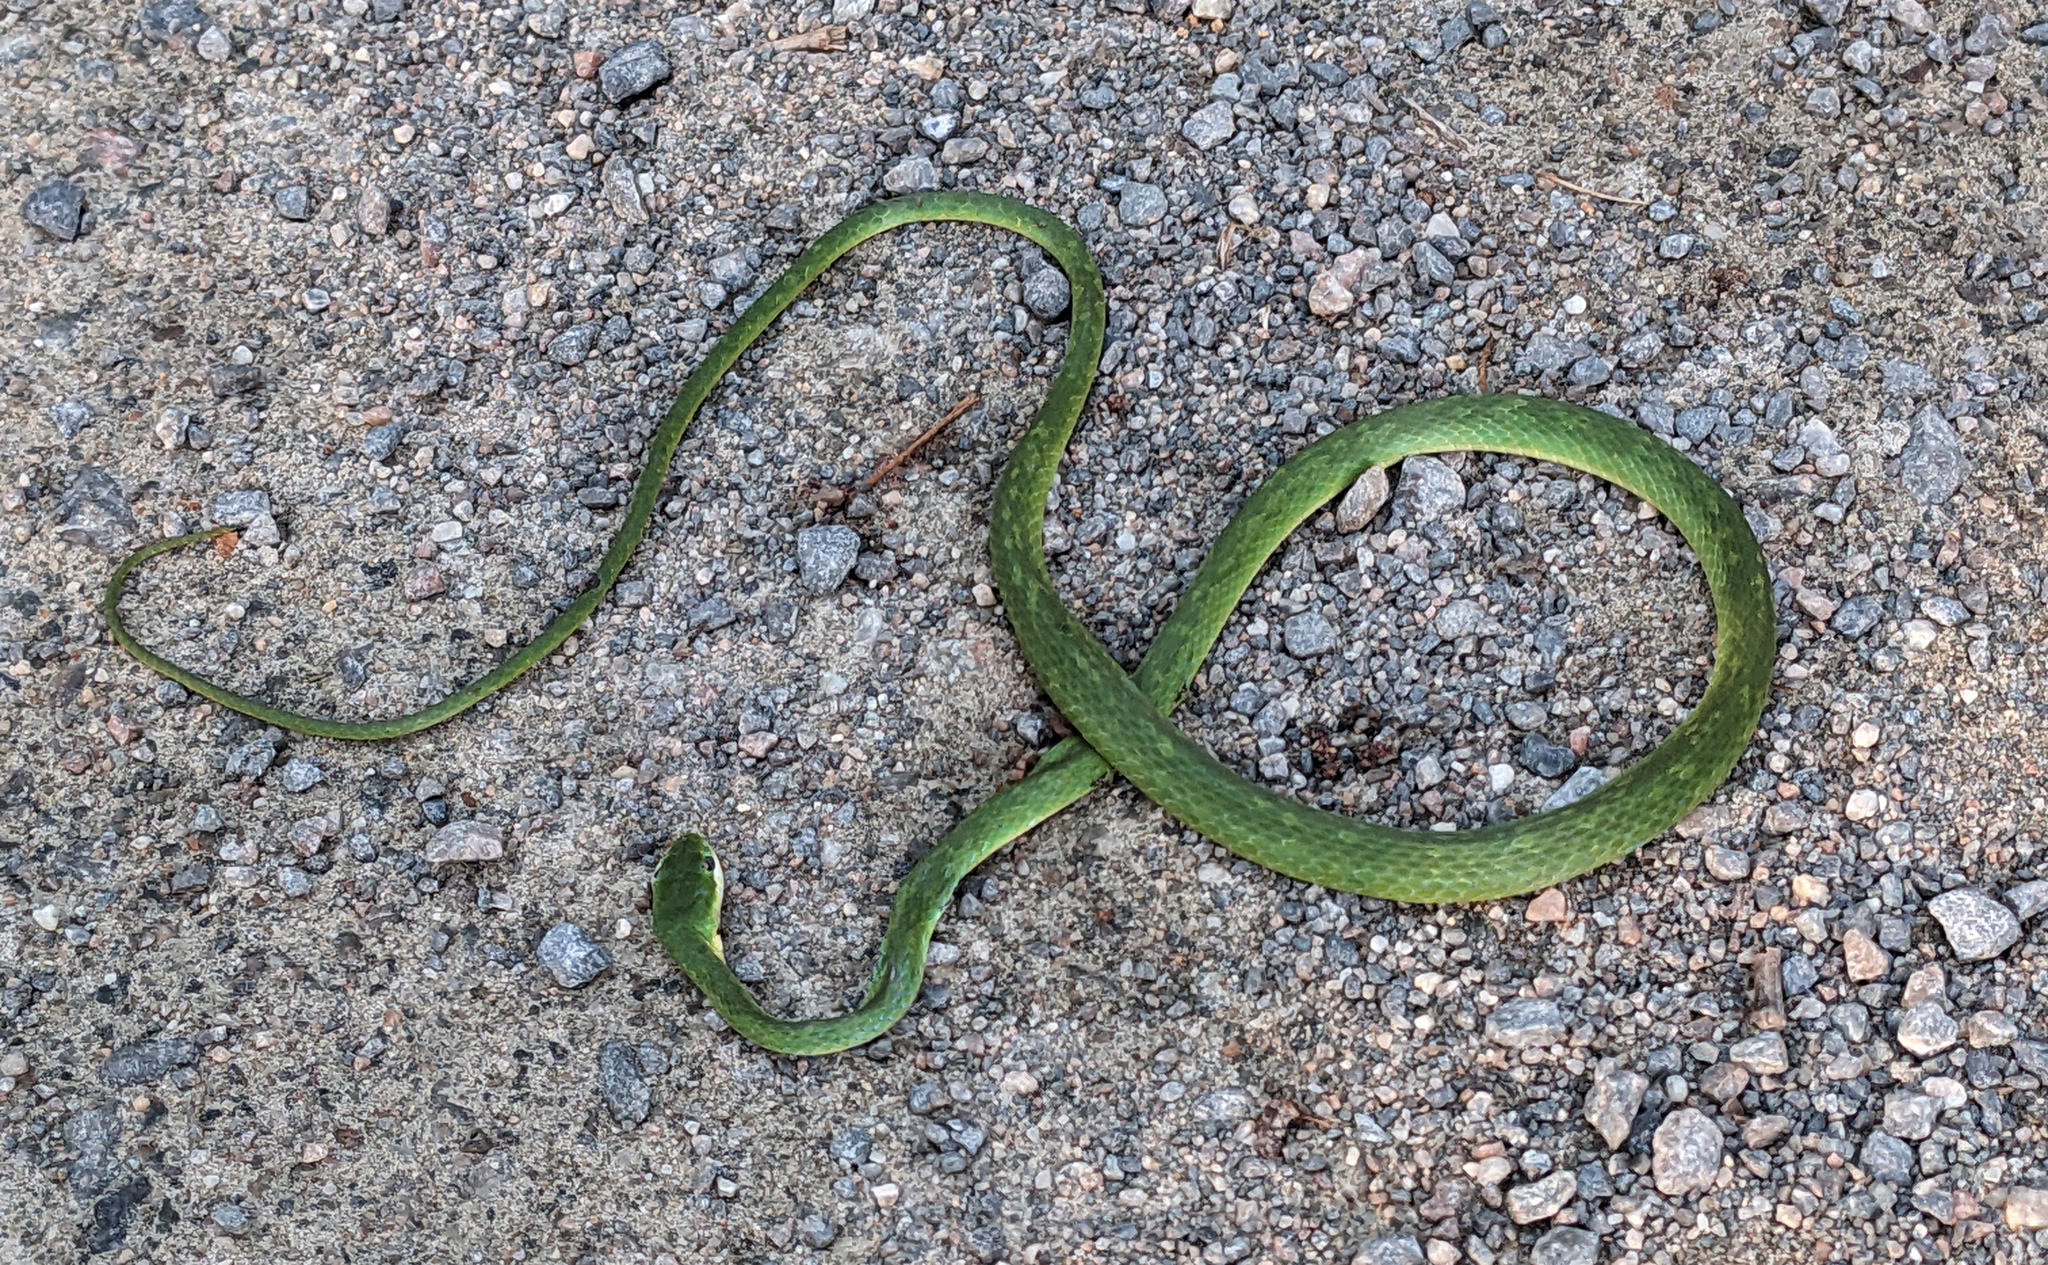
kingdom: Animalia
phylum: Chordata
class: Squamata
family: Colubridae
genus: Opheodrys
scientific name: Opheodrys aestivus
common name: Rough greensnake
